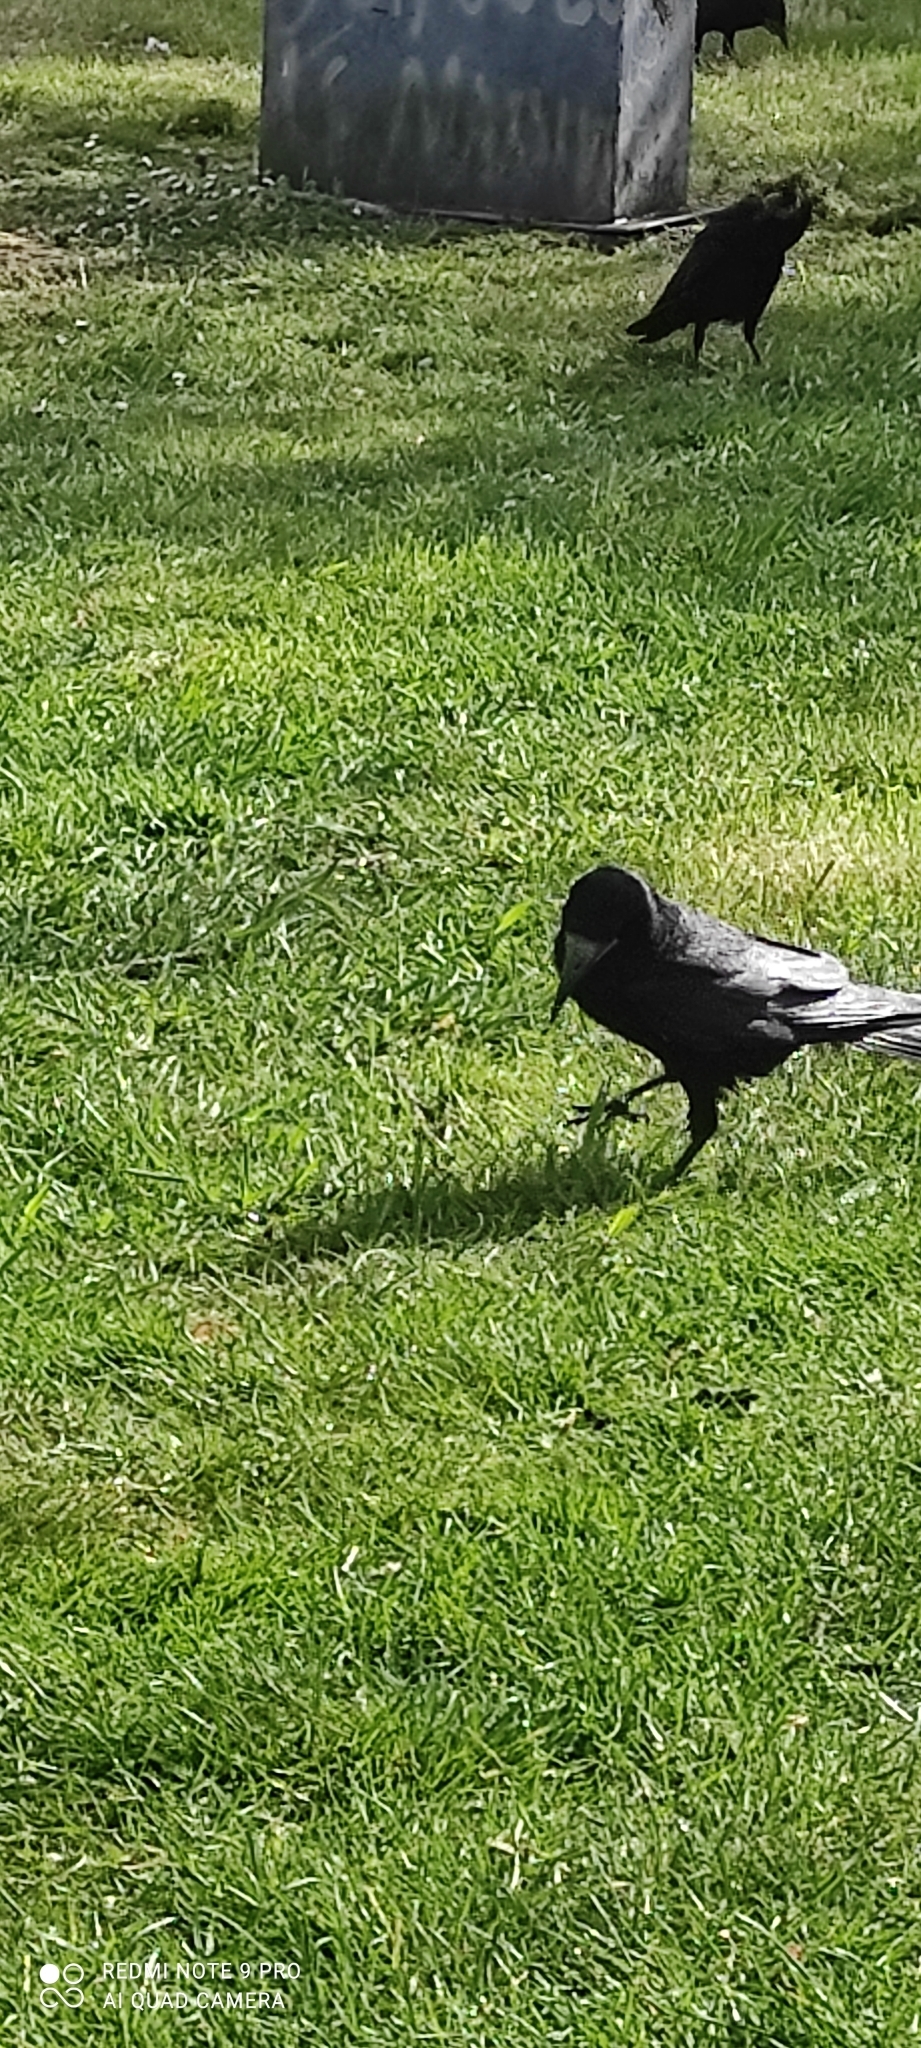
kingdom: Animalia
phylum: Chordata
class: Aves
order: Passeriformes
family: Corvidae
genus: Corvus
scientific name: Corvus frugilegus
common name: Rook
